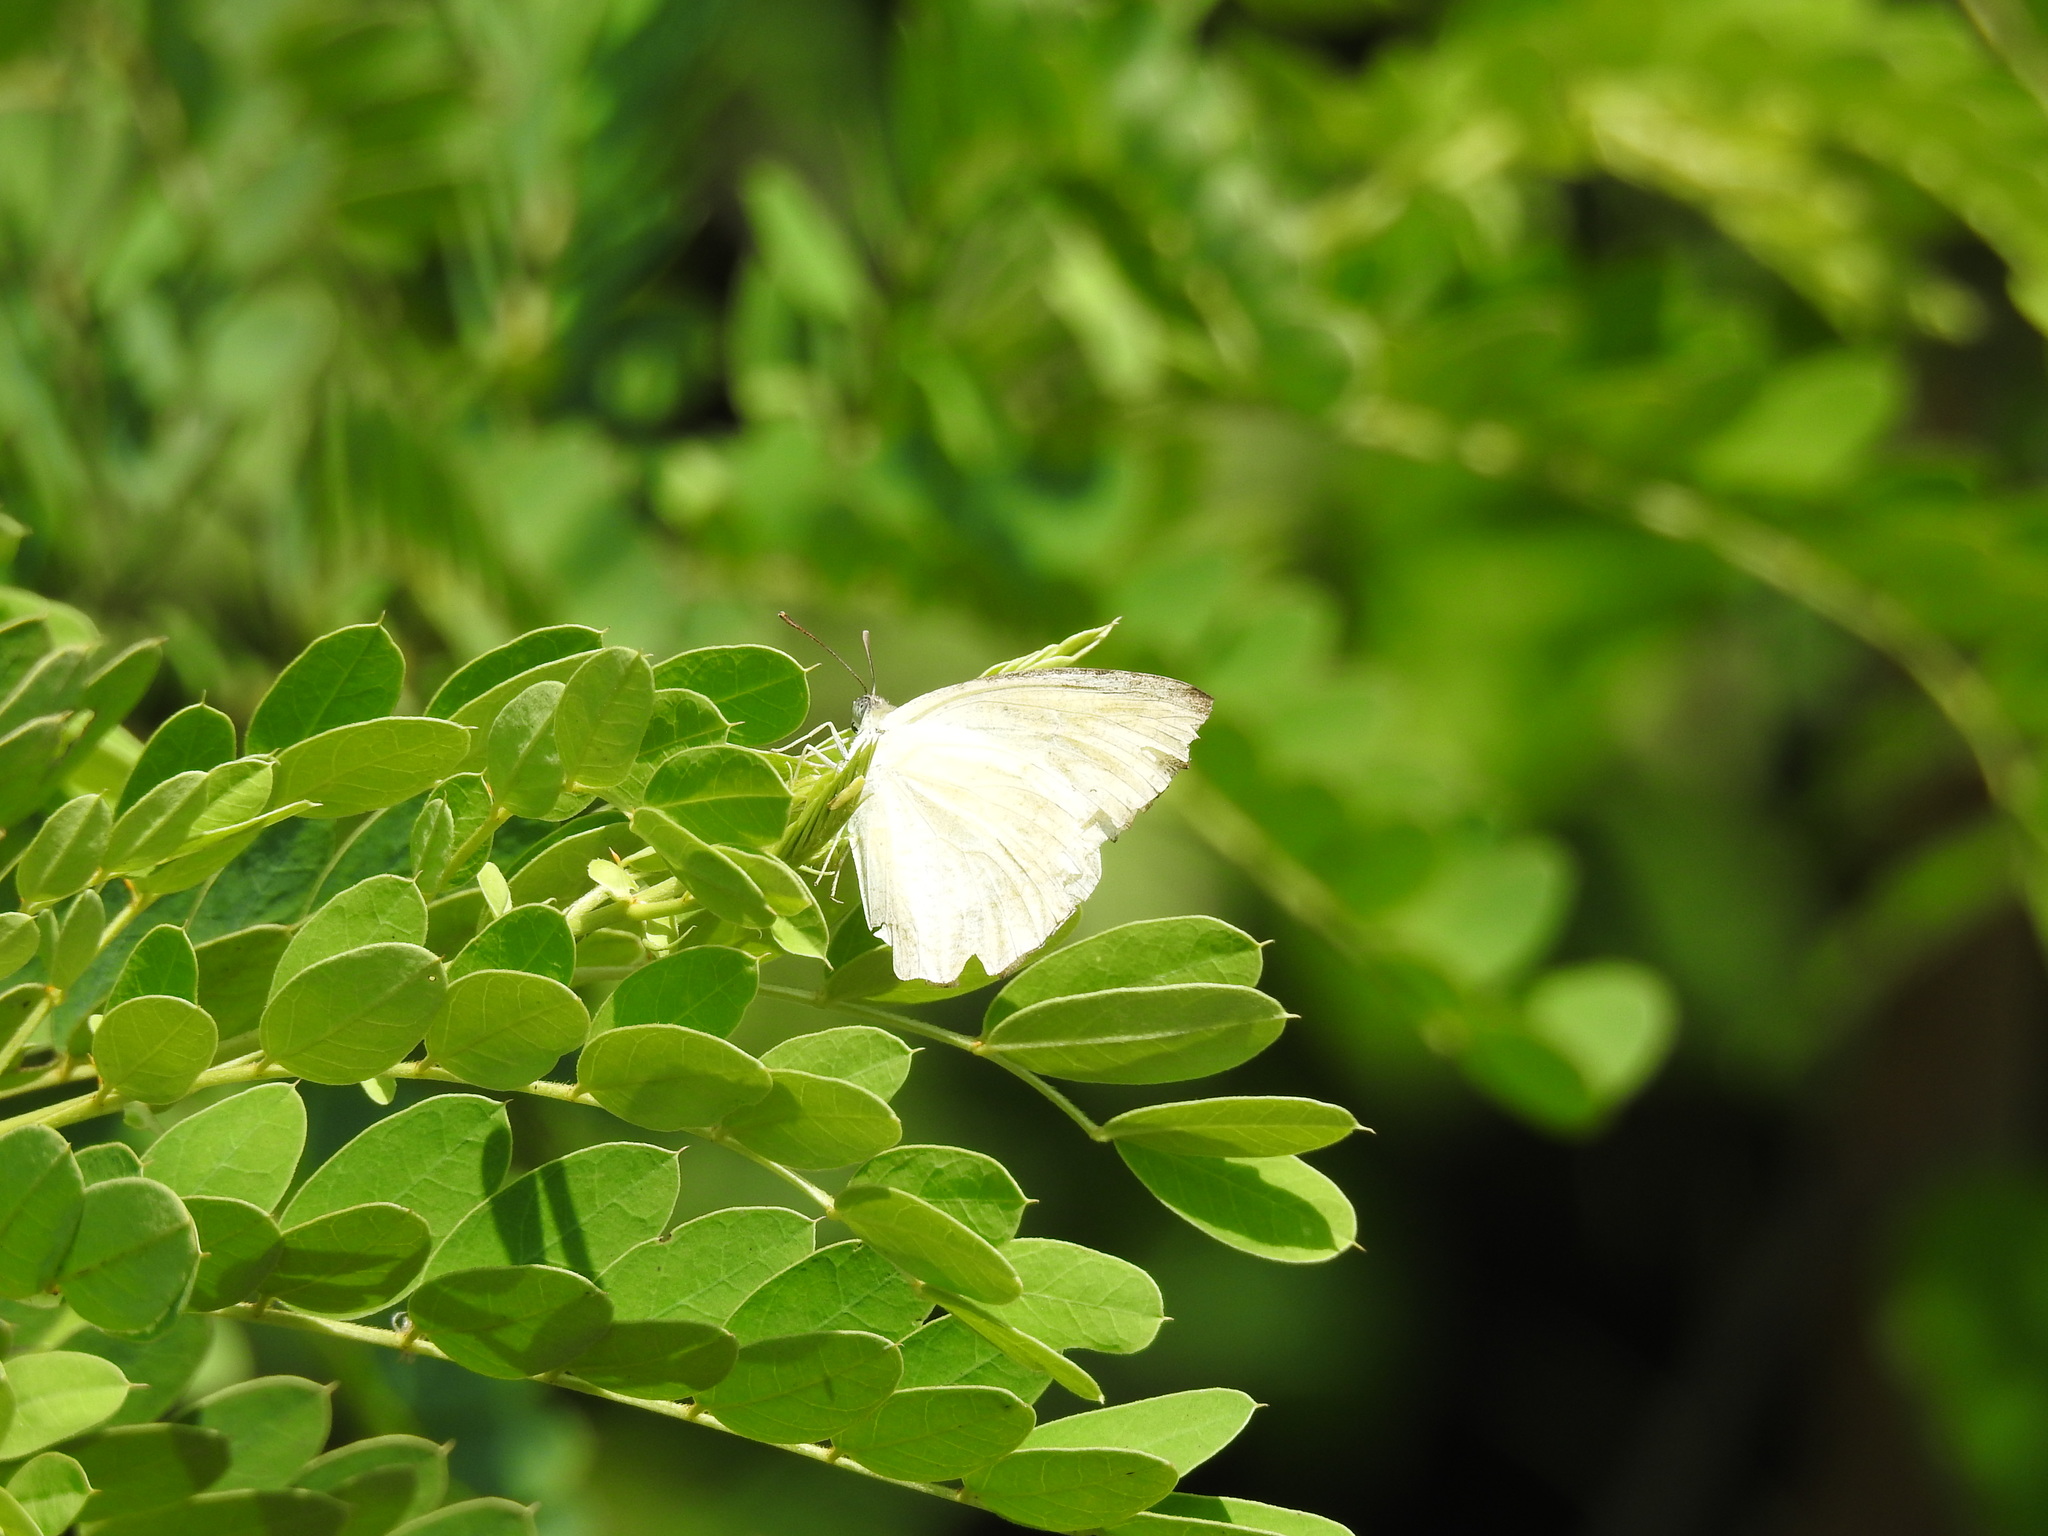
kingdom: Animalia
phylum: Arthropoda
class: Insecta
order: Lepidoptera
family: Pieridae
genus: Catopsilia
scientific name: Catopsilia pomona
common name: Common emigrant
